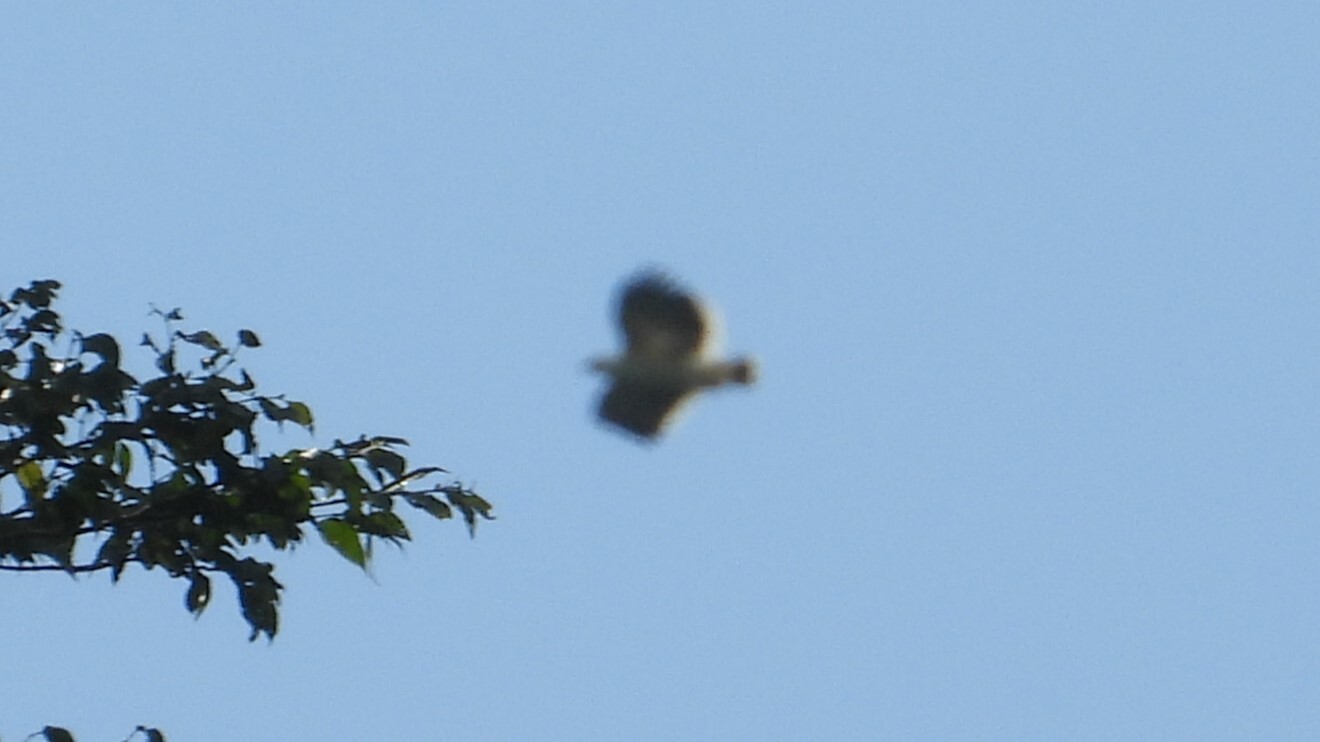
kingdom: Animalia
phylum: Chordata
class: Aves
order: Accipitriformes
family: Accipitridae
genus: Leucopternis
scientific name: Leucopternis albicollis
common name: White hawk
